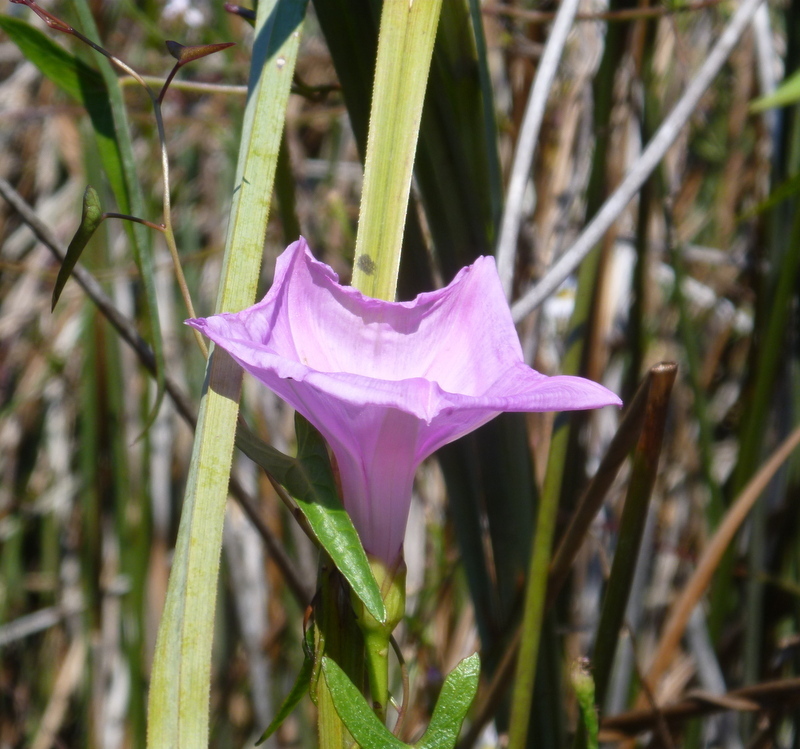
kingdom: Plantae
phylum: Tracheophyta
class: Magnoliopsida
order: Solanales
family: Convolvulaceae
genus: Ipomoea
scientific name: Ipomoea sagittata
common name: Saltmarsh morning glory
